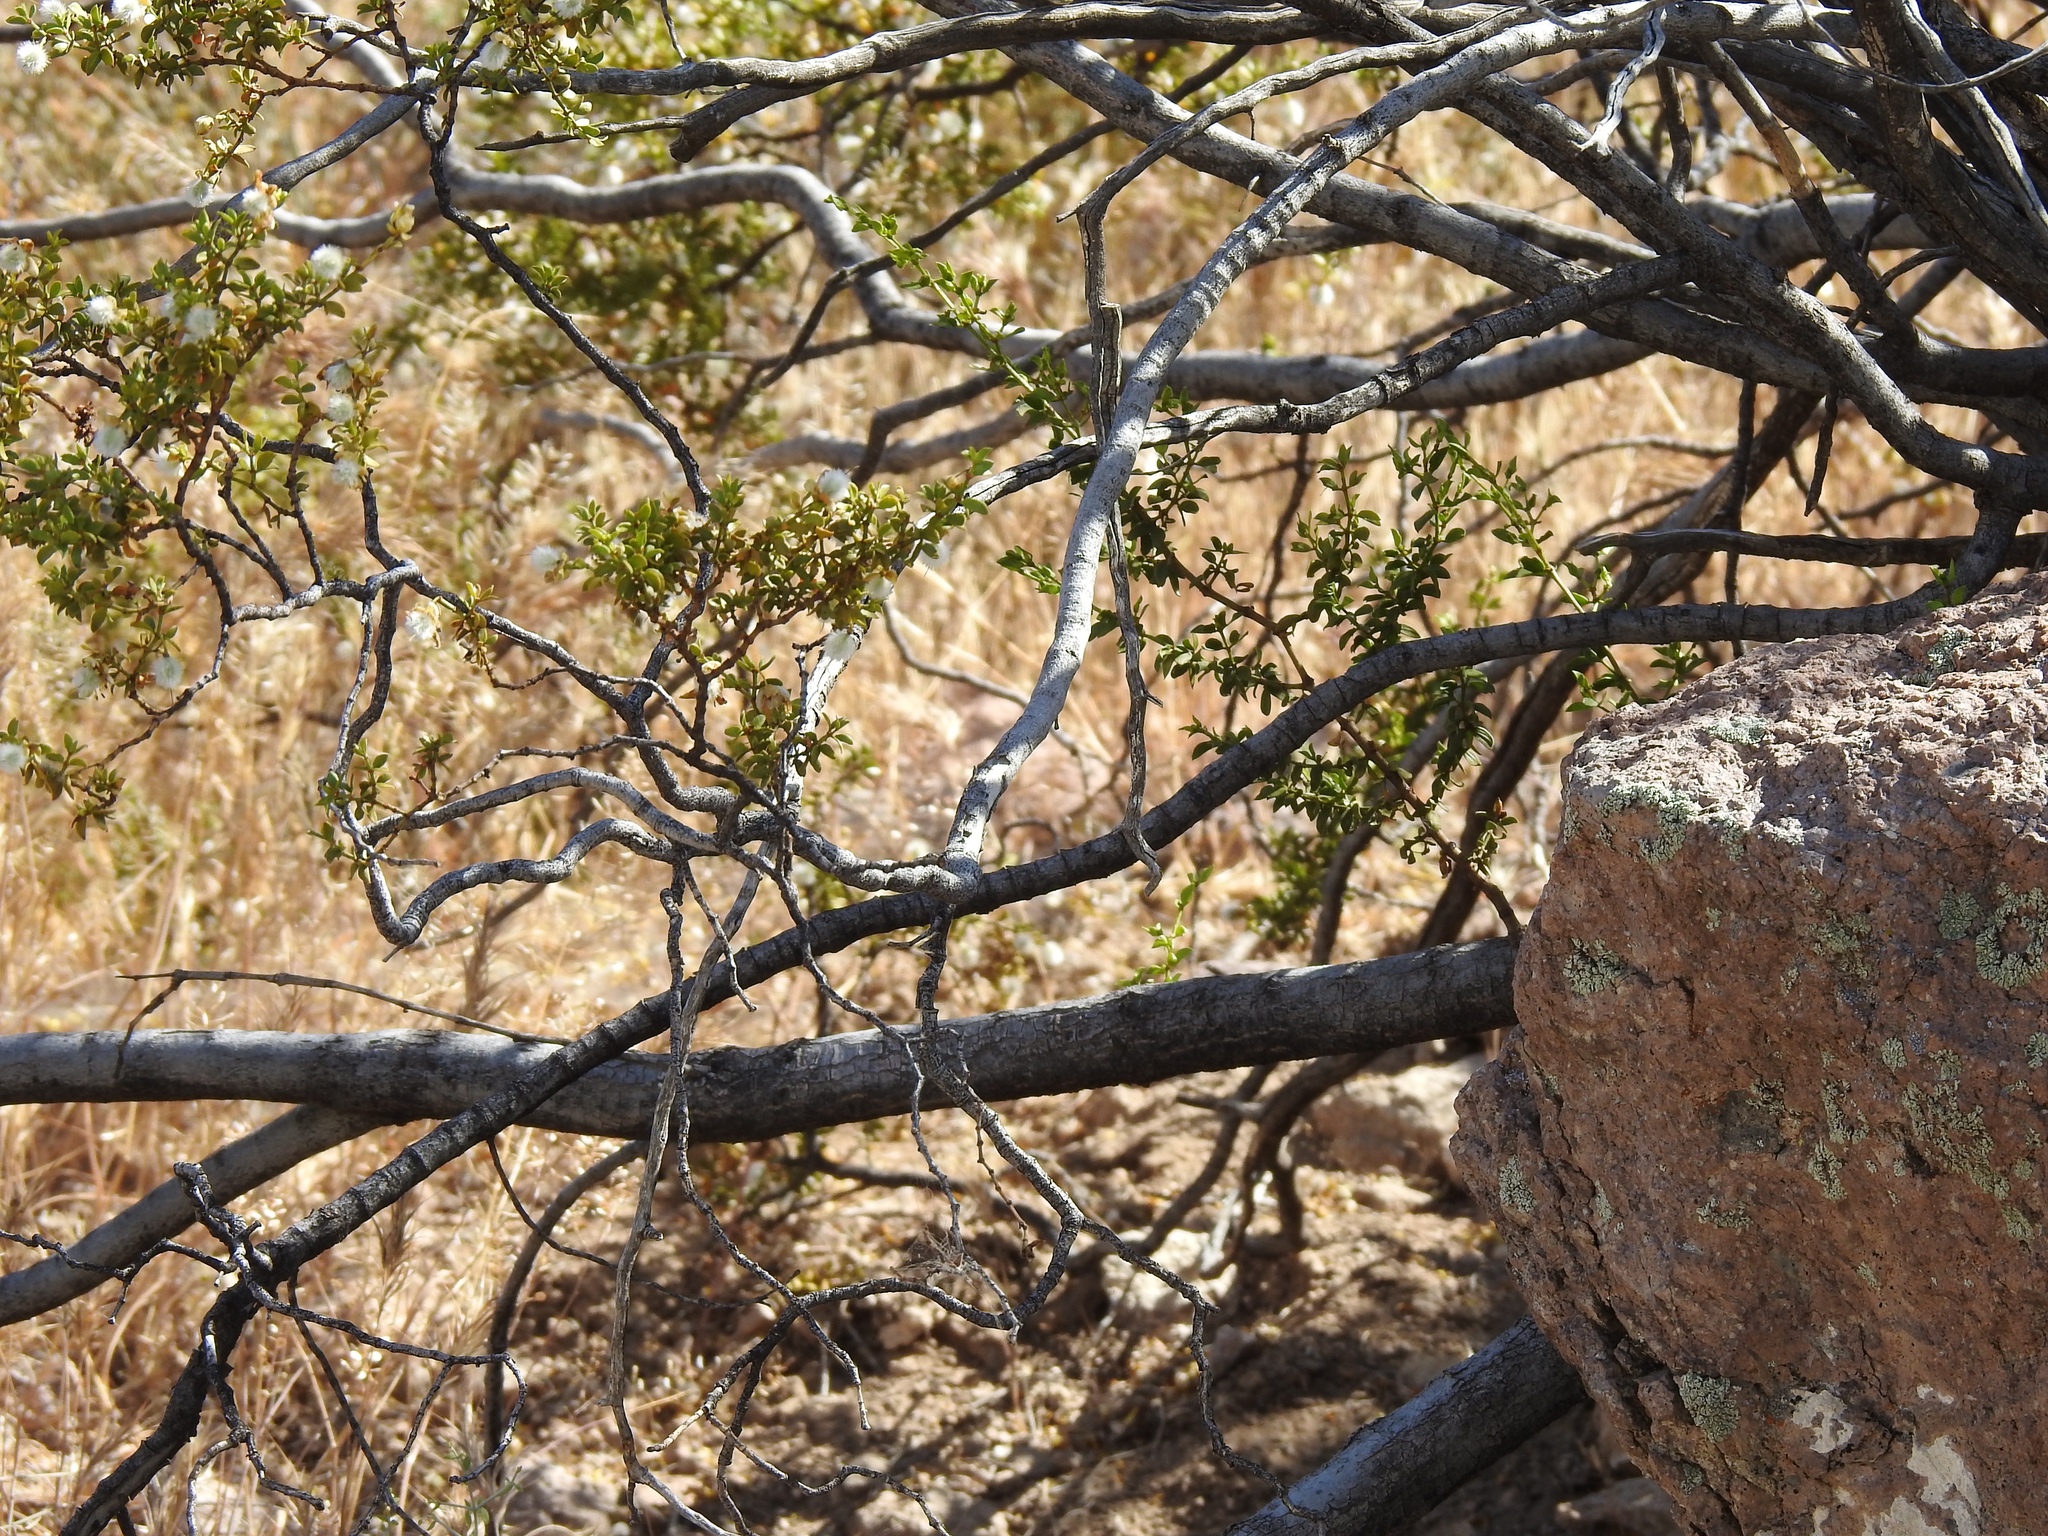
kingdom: Plantae
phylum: Tracheophyta
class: Magnoliopsida
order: Zygophyllales
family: Zygophyllaceae
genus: Larrea
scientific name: Larrea tridentata
